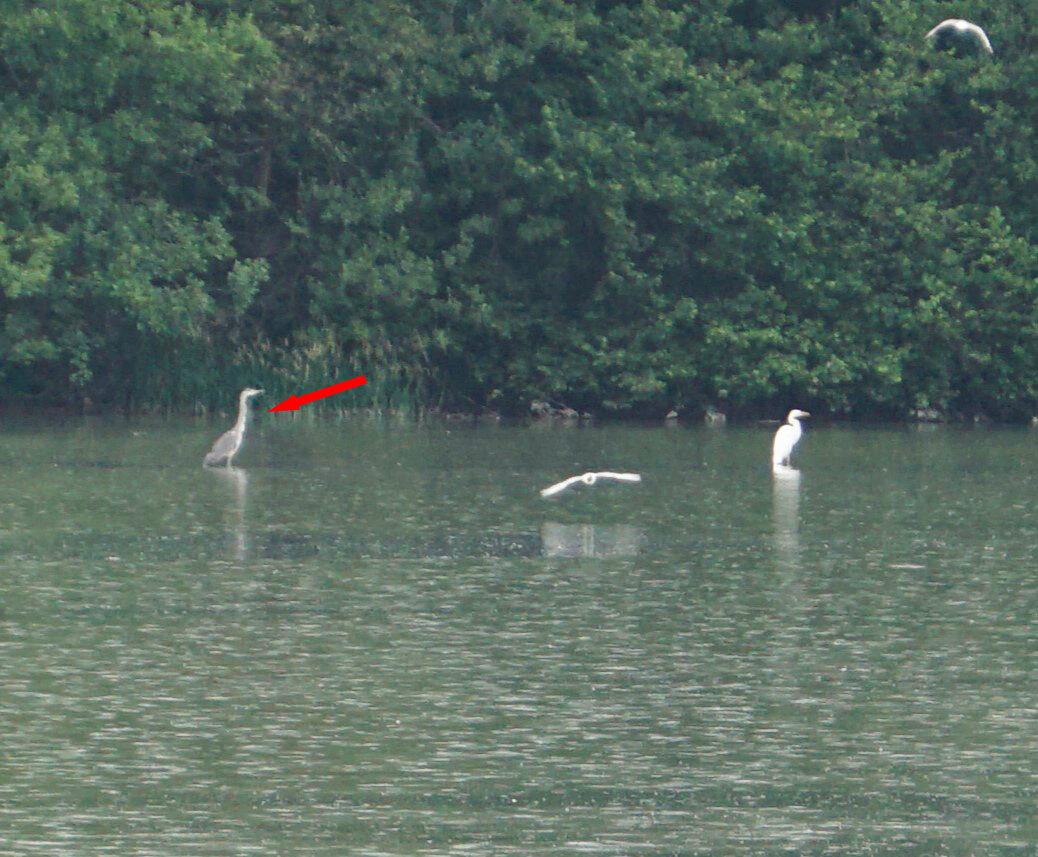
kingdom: Animalia
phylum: Chordata
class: Aves
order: Pelecaniformes
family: Ardeidae
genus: Ardea
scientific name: Ardea cinerea
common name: Grey heron
